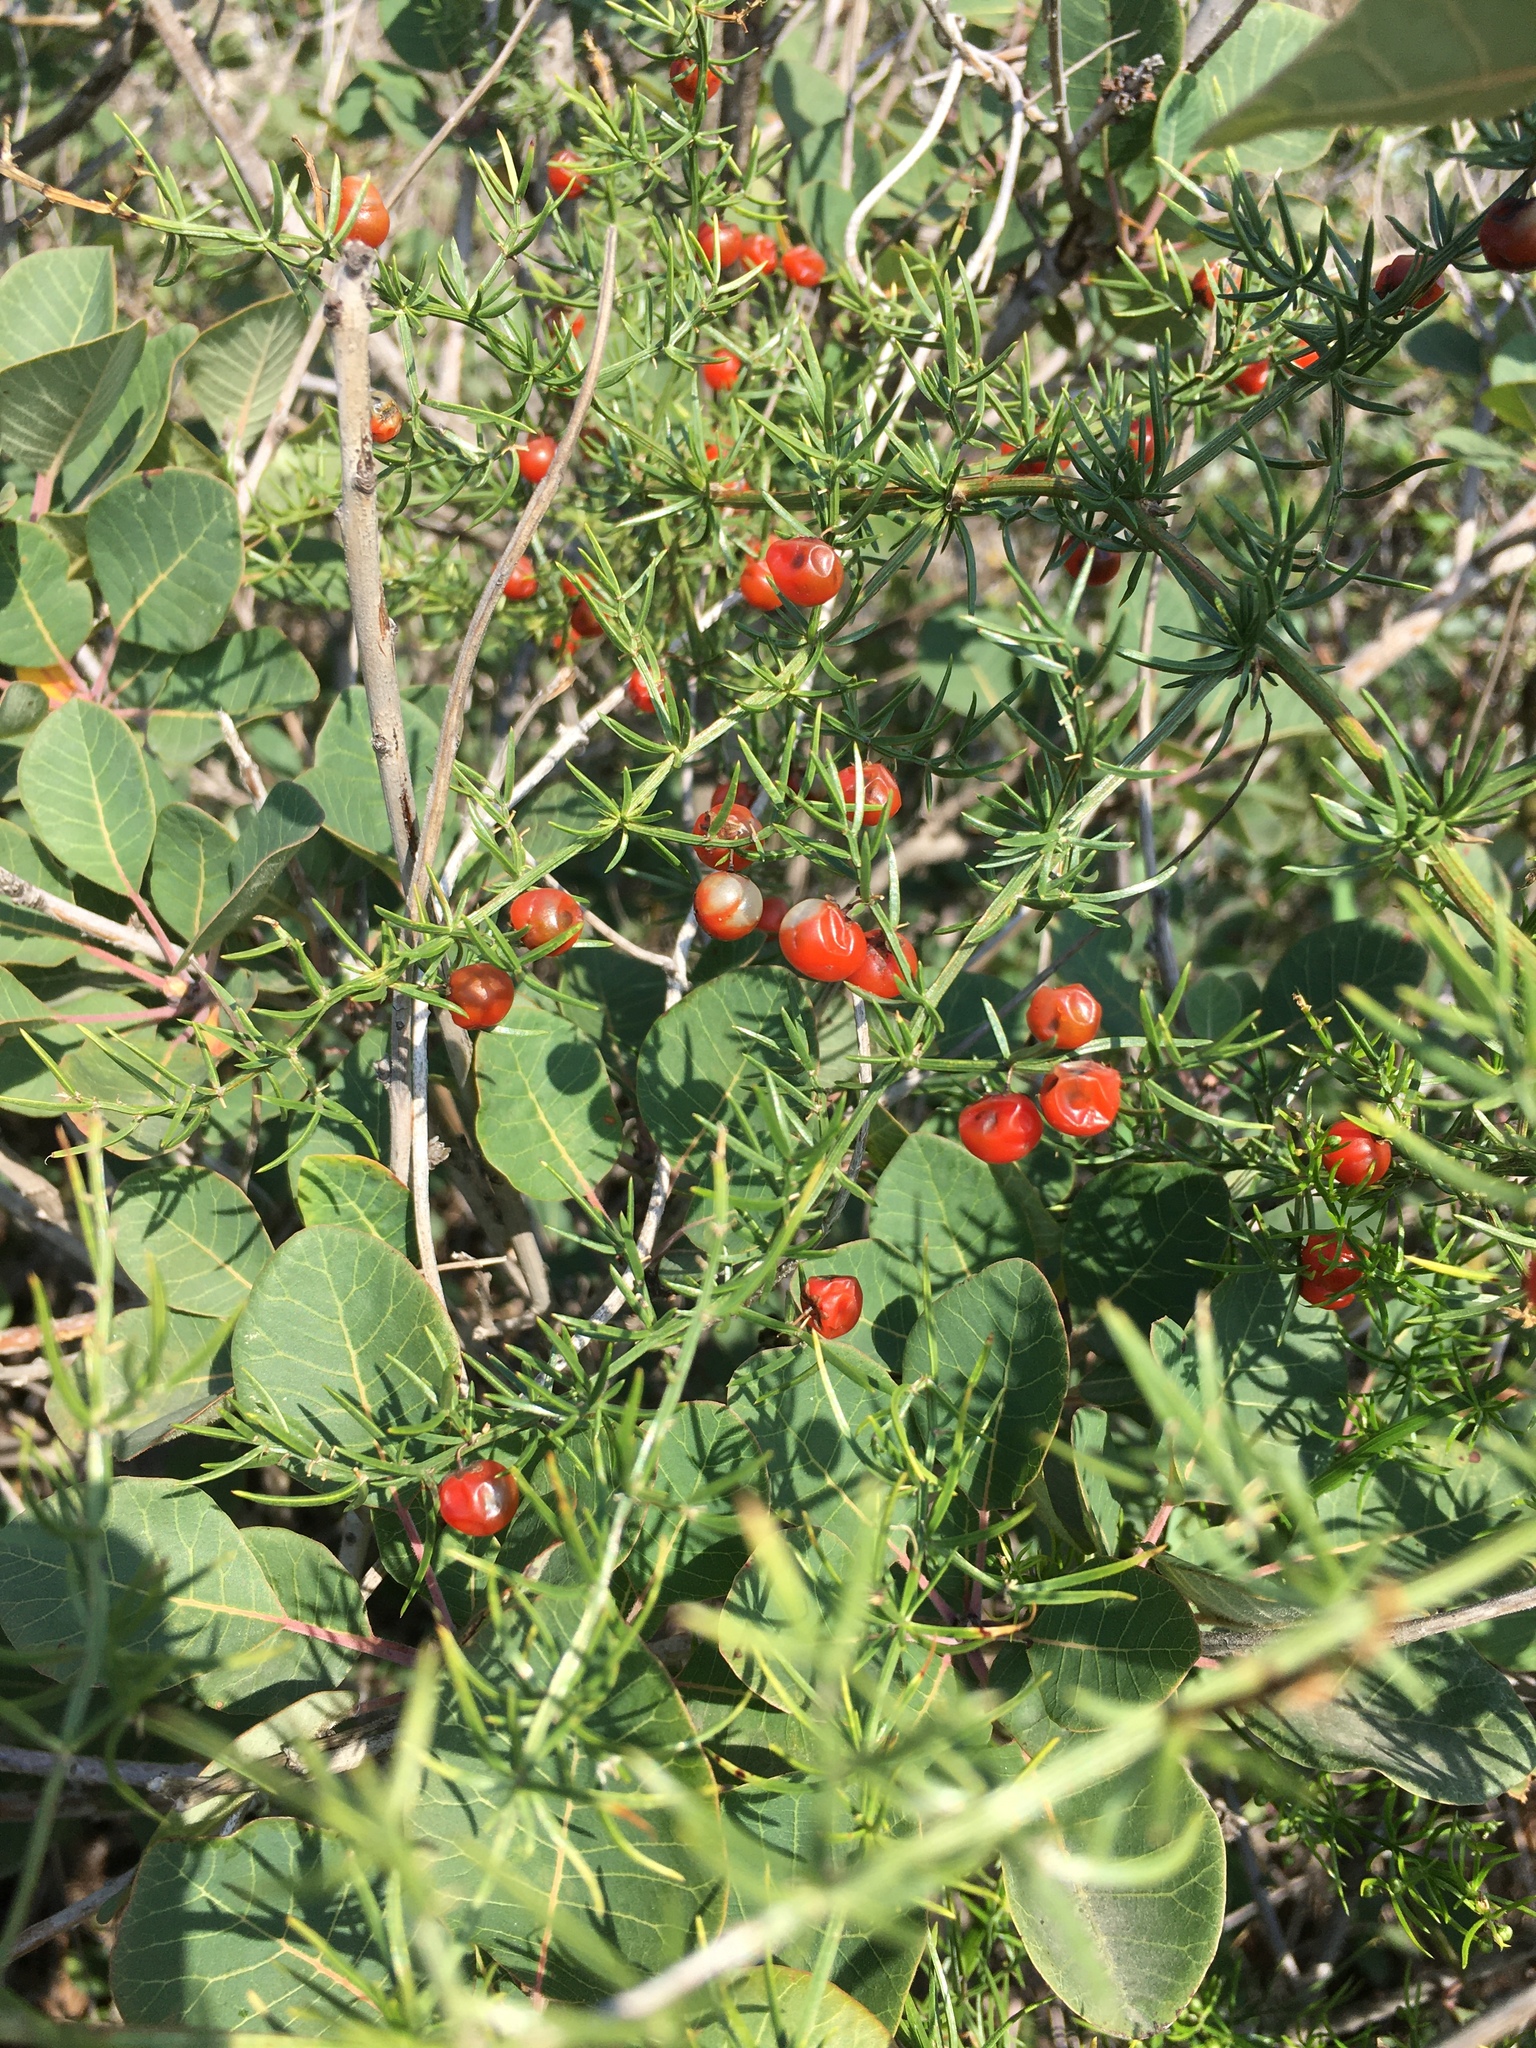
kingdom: Plantae
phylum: Tracheophyta
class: Liliopsida
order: Asparagales
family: Asparagaceae
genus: Asparagus
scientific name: Asparagus verticillatus
